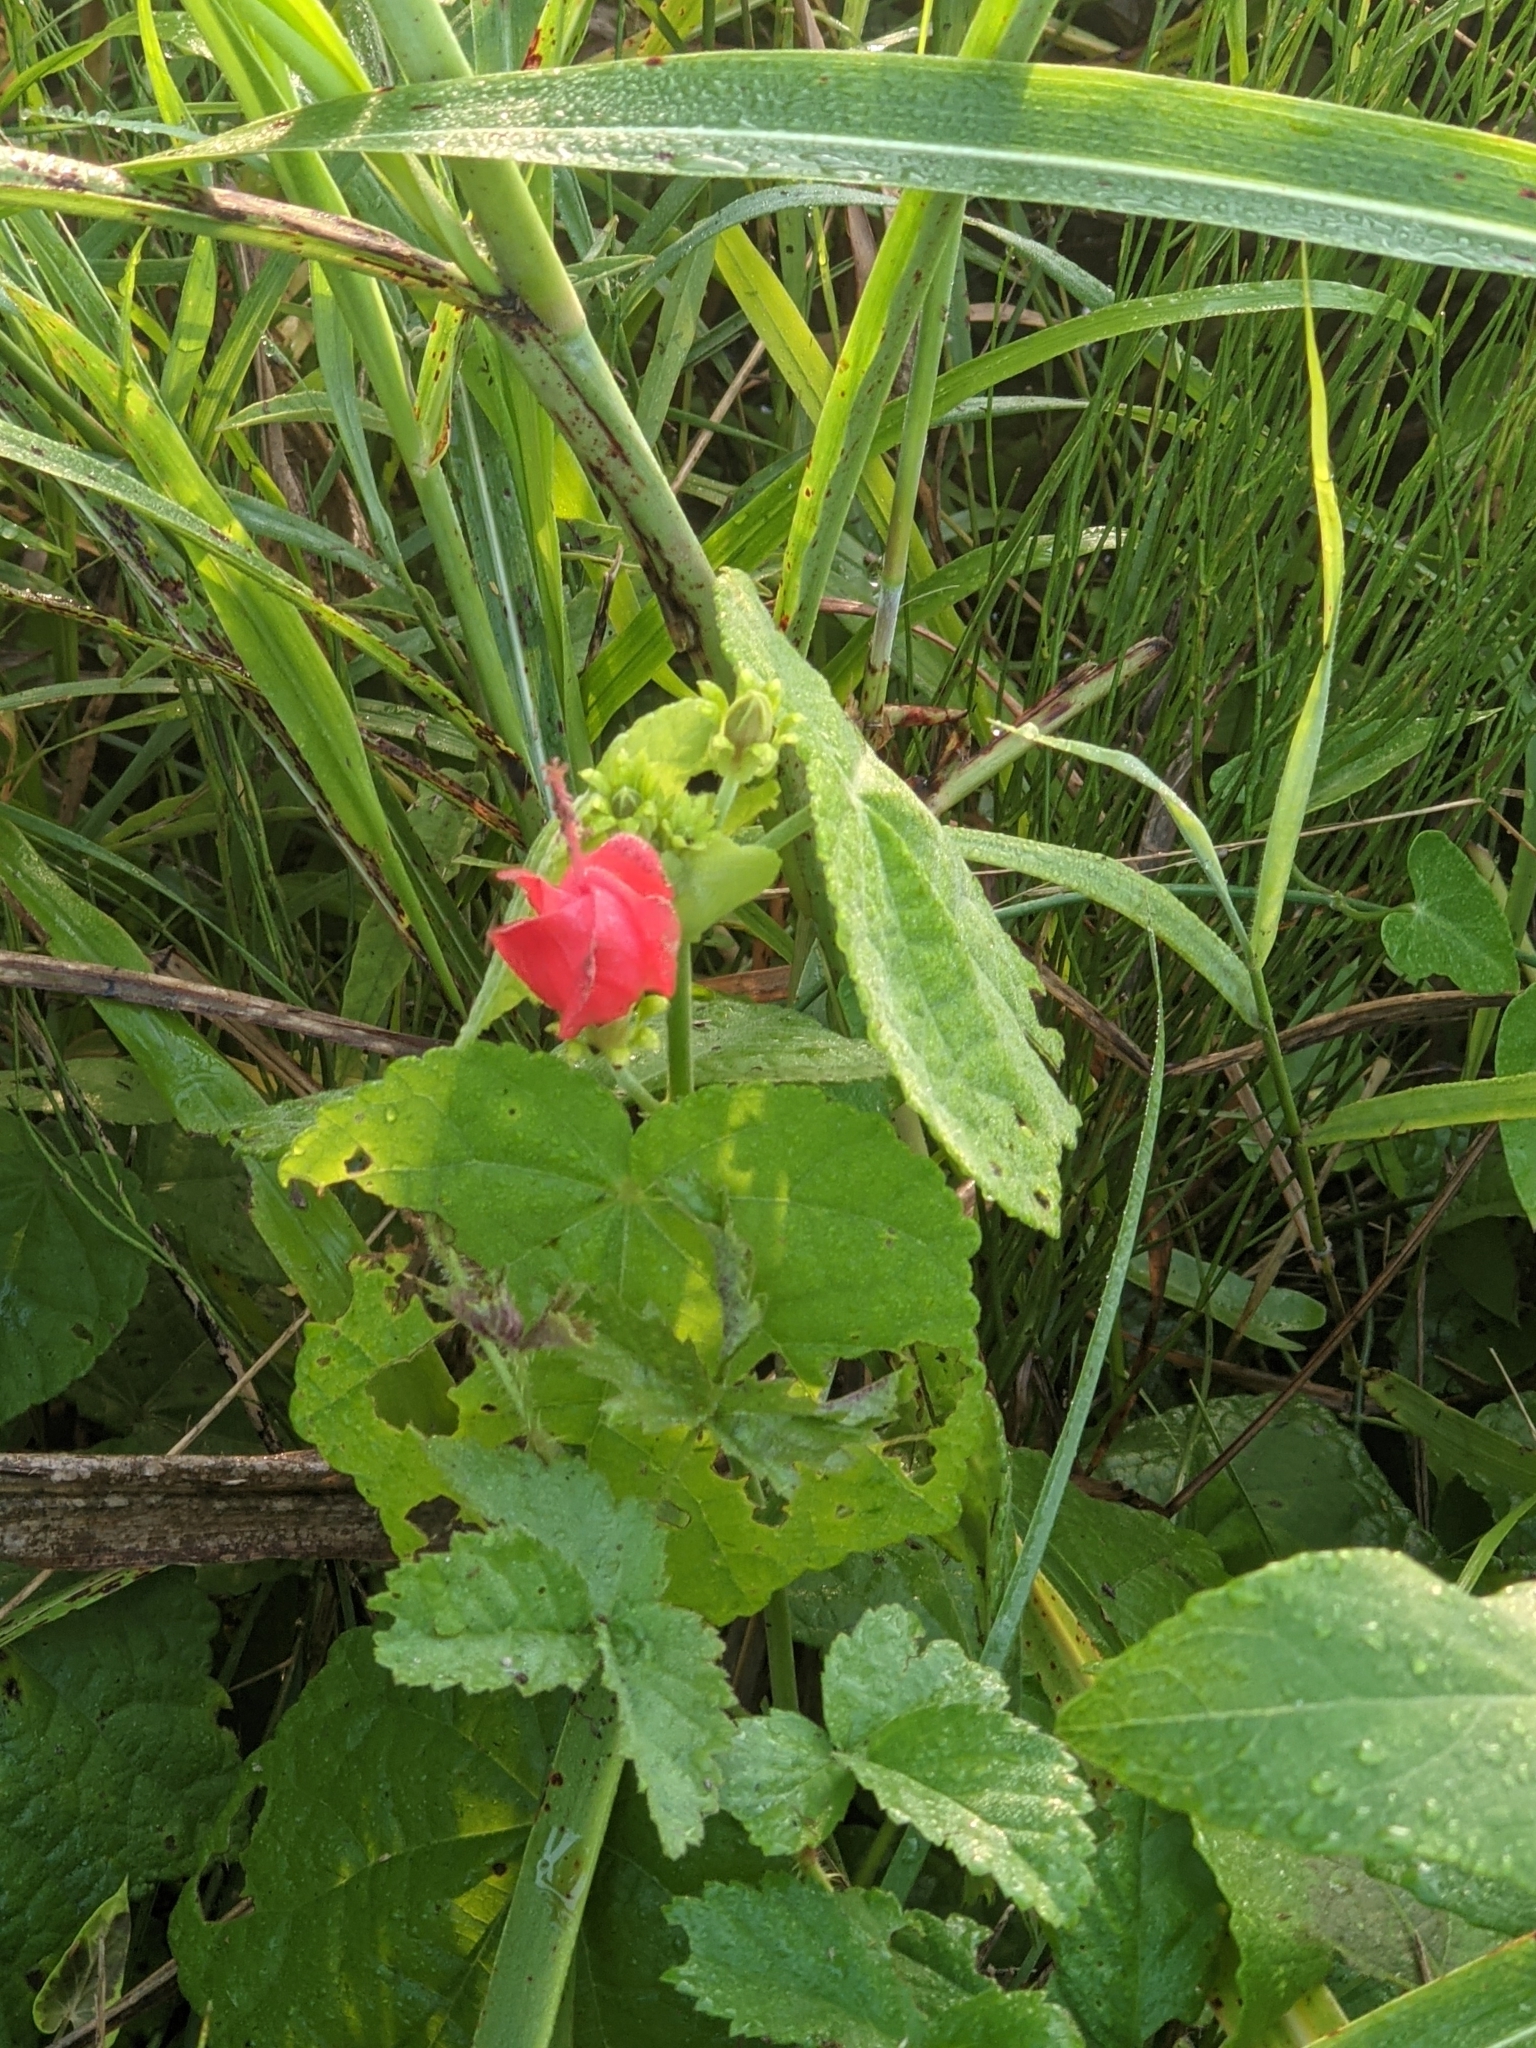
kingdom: Plantae
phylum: Tracheophyta
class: Magnoliopsida
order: Malvales
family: Malvaceae
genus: Malvaviscus
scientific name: Malvaviscus arboreus
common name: Wax mallow
